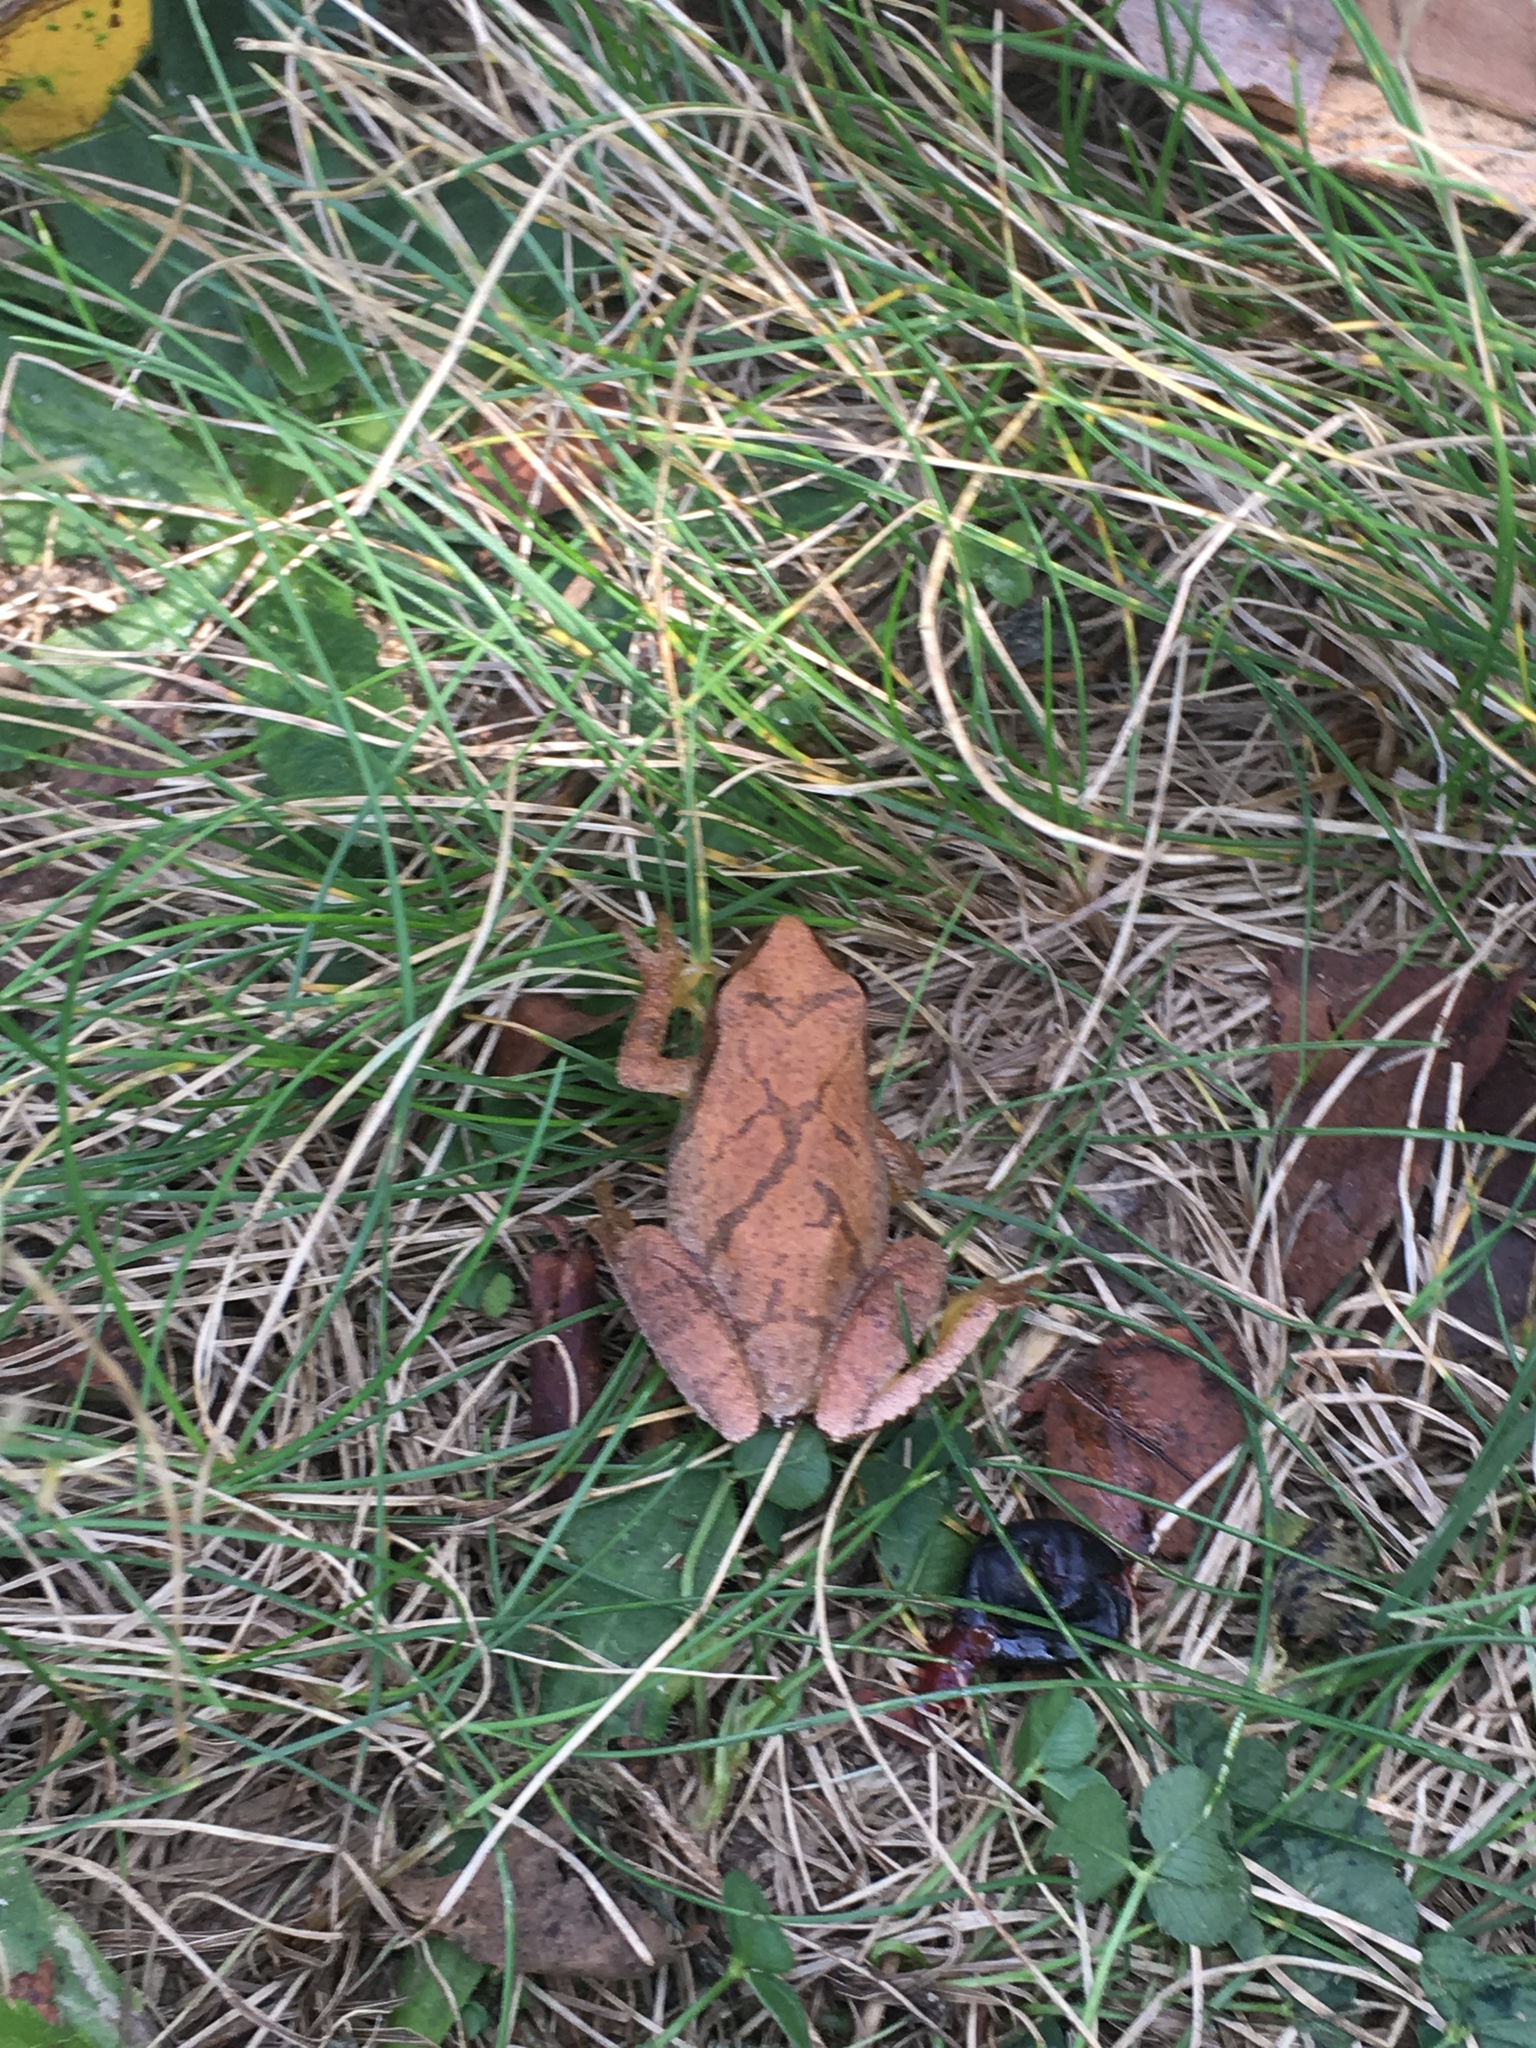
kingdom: Animalia
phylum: Chordata
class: Amphibia
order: Anura
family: Hylidae
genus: Pseudacris
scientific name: Pseudacris crucifer
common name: Spring peeper
